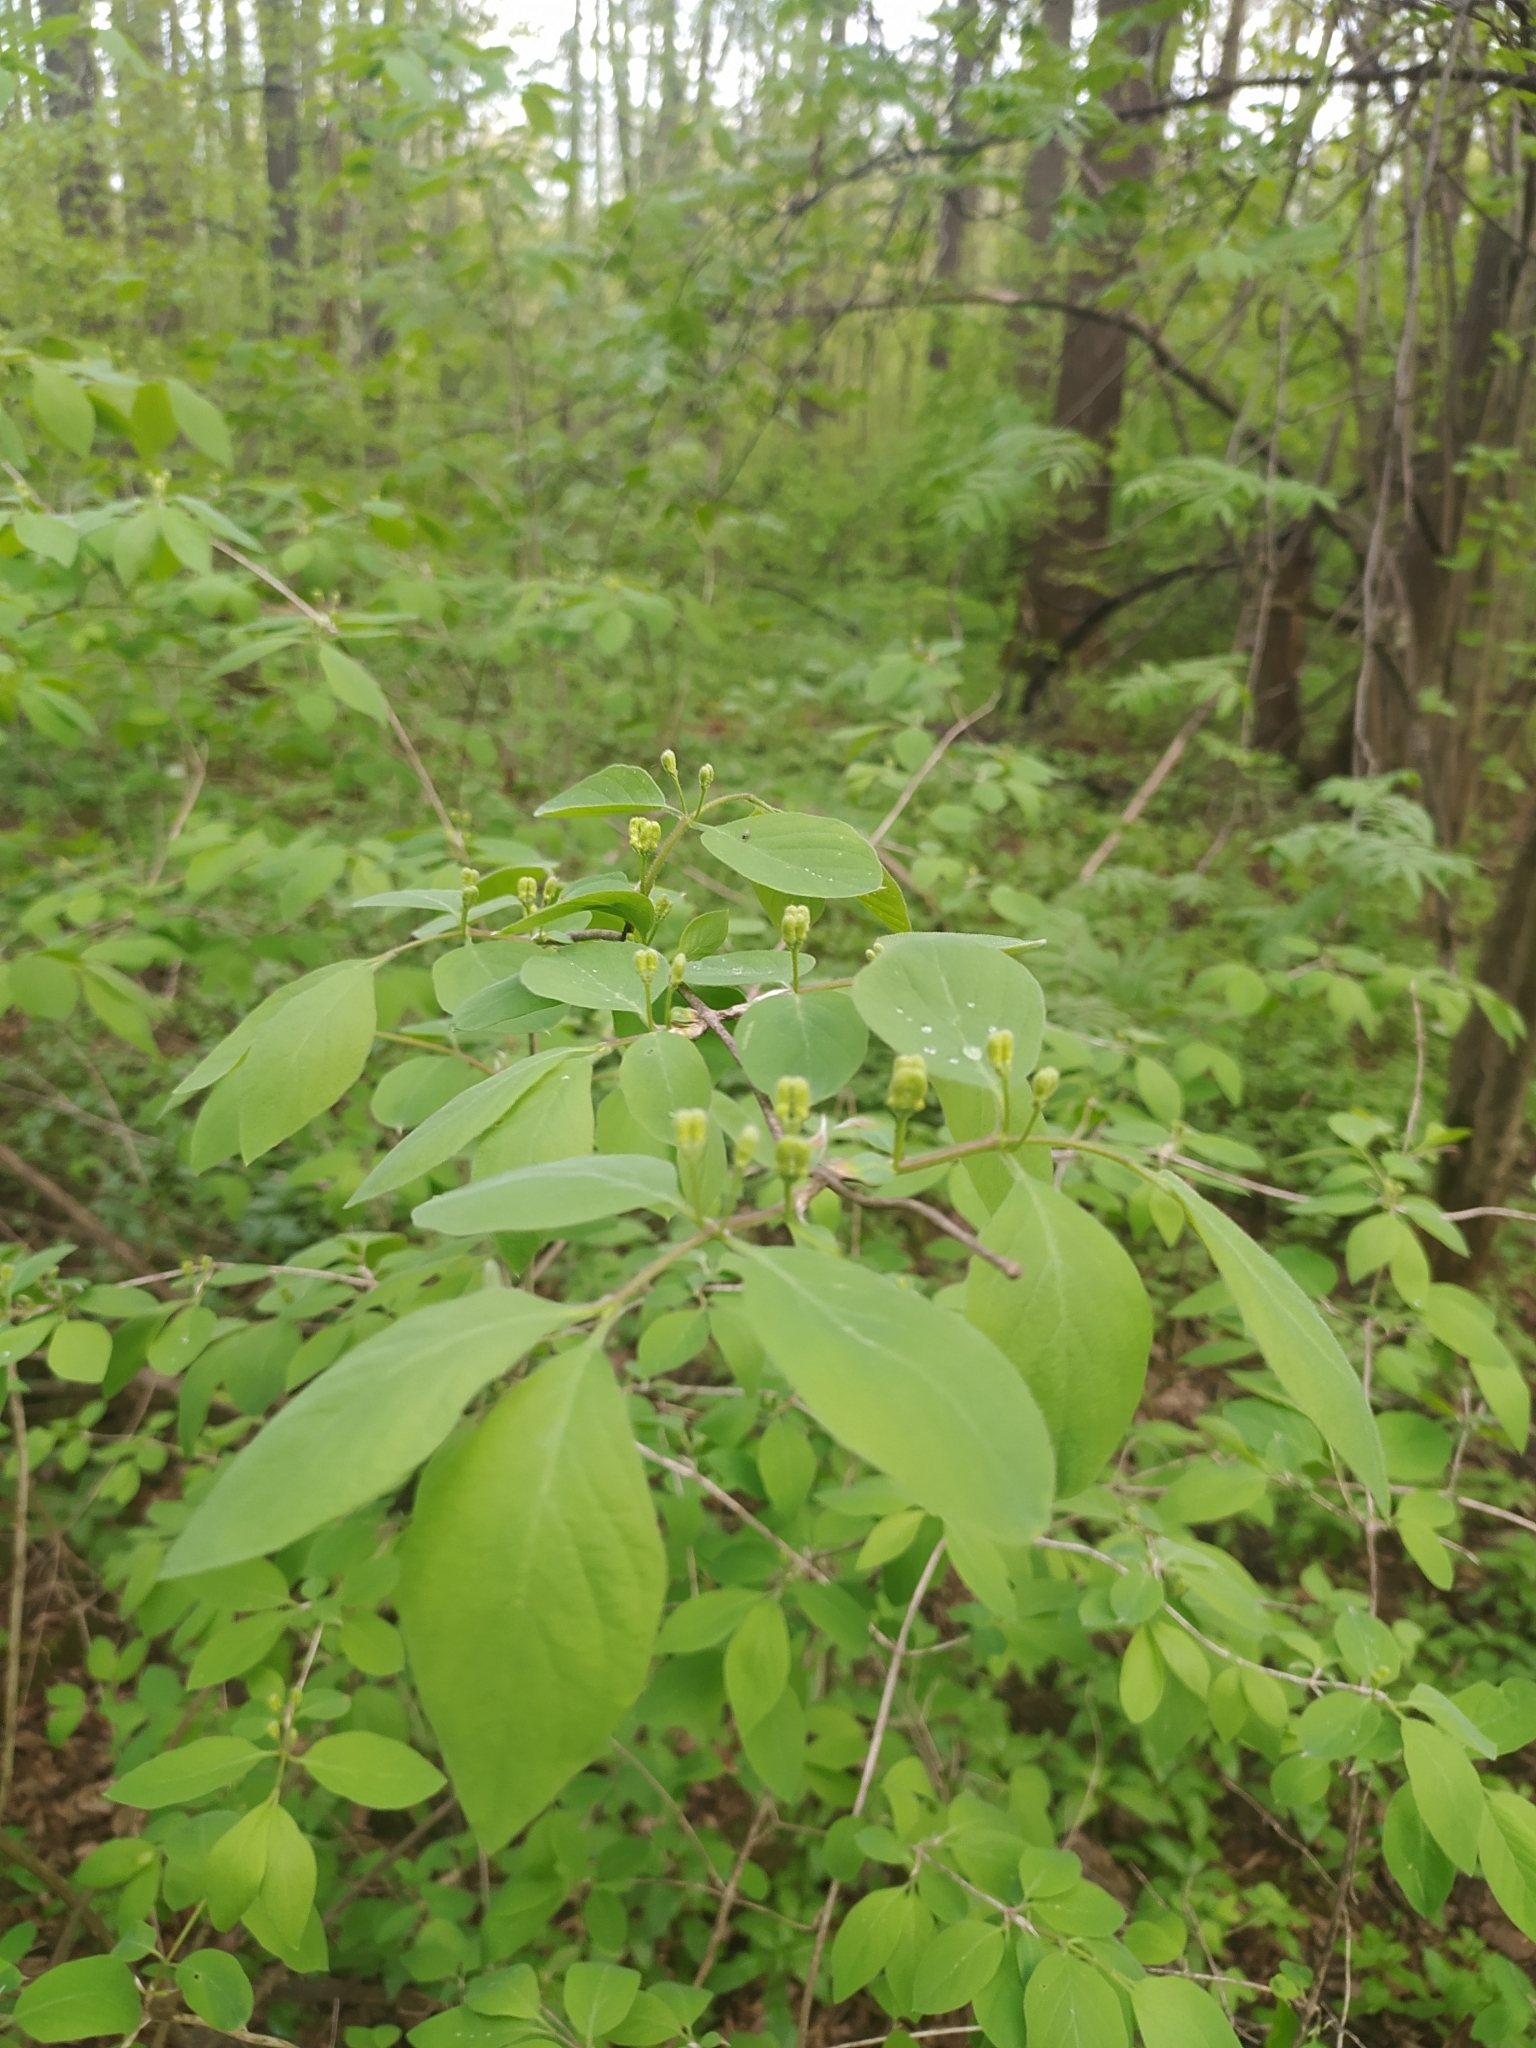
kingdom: Plantae
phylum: Tracheophyta
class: Magnoliopsida
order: Dipsacales
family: Caprifoliaceae
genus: Lonicera
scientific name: Lonicera xylosteum
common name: Fly honeysuckle
